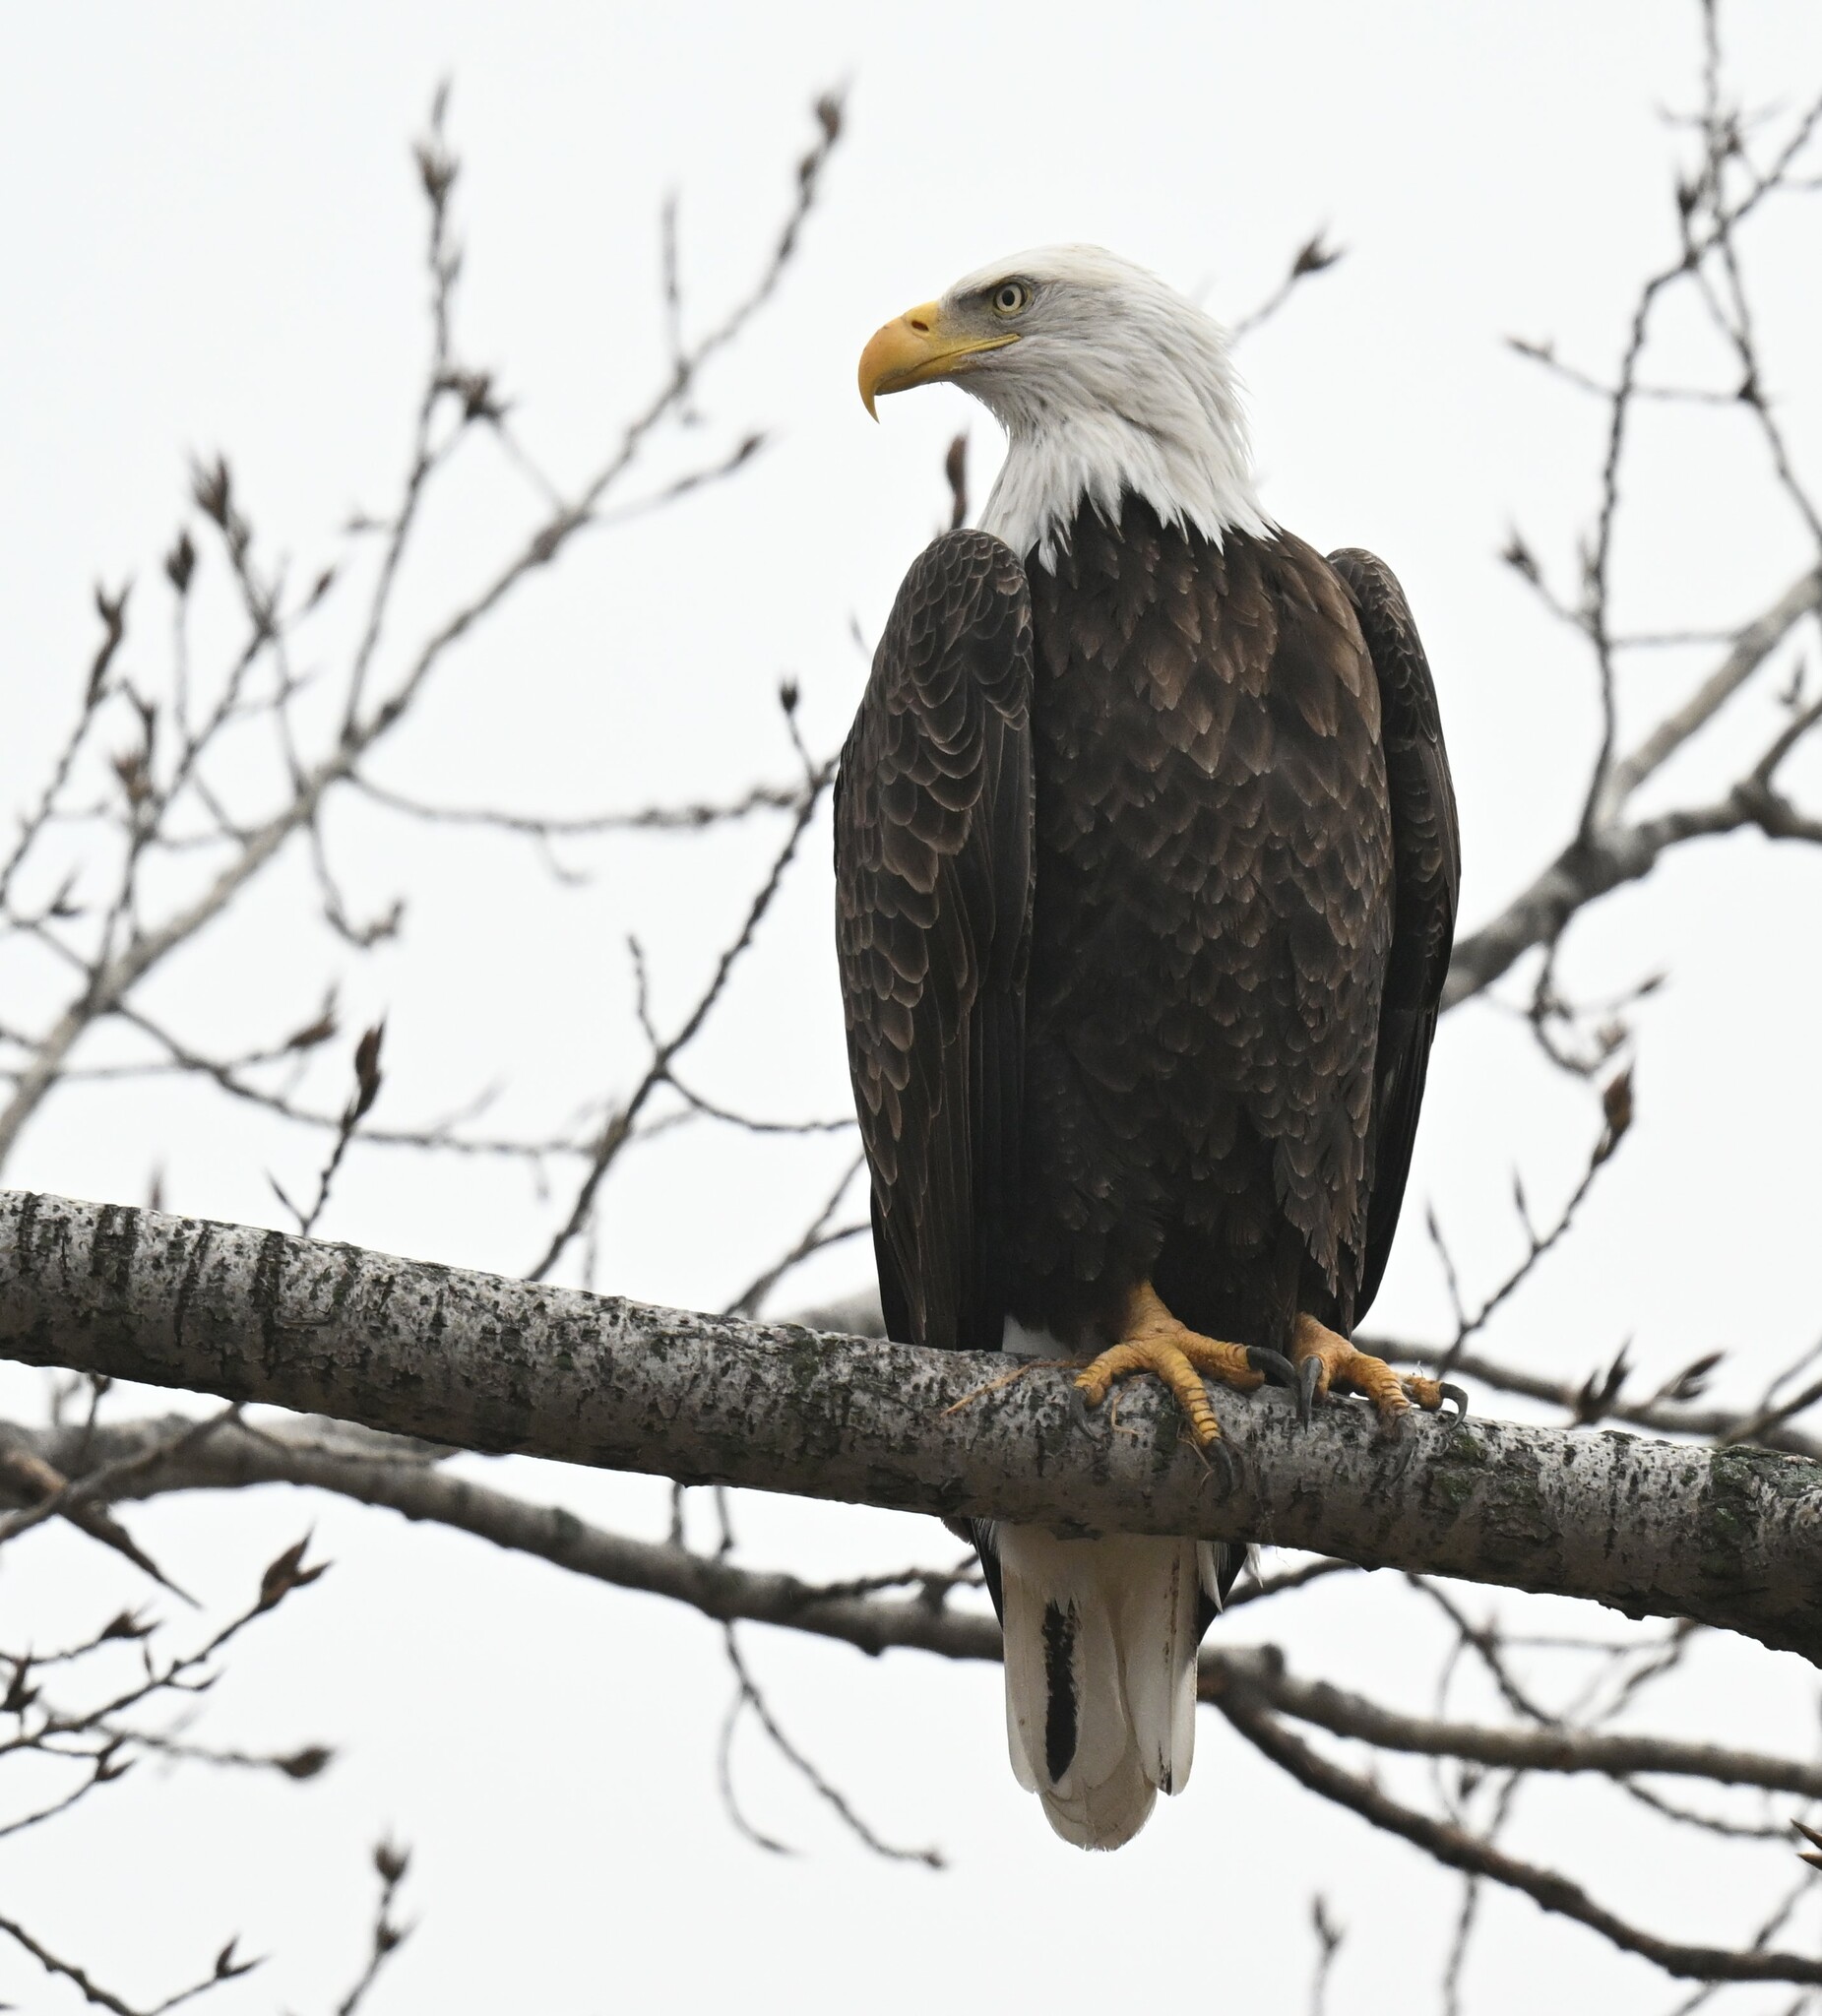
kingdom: Animalia
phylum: Chordata
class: Aves
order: Accipitriformes
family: Accipitridae
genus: Haliaeetus
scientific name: Haliaeetus leucocephalus
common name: Bald eagle
